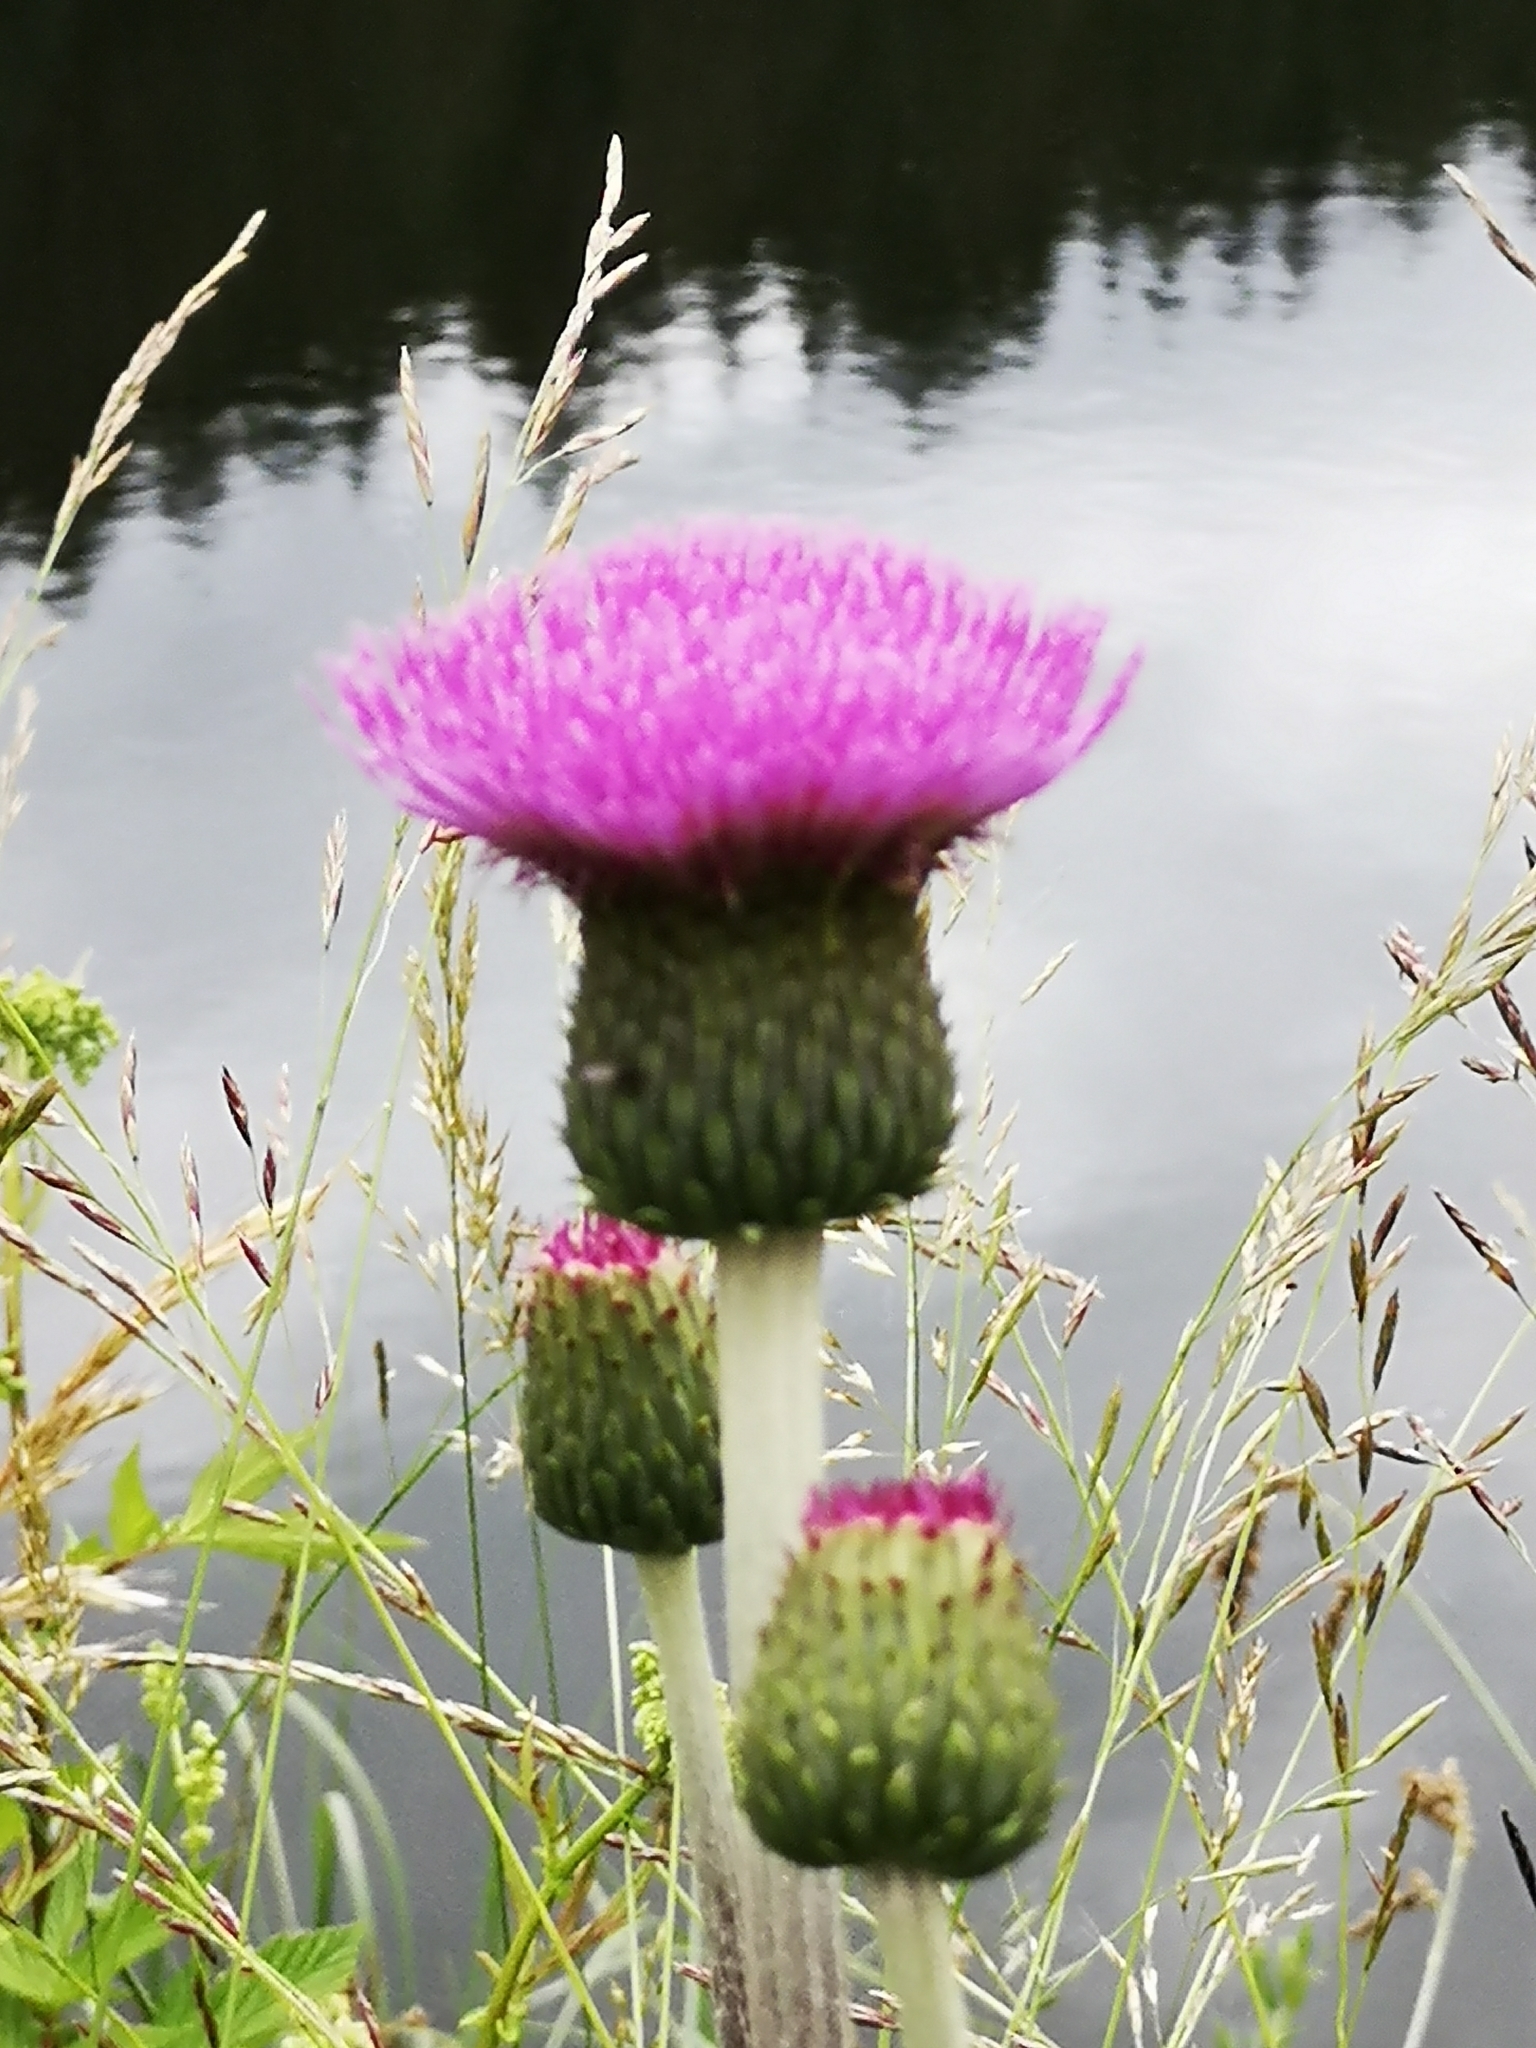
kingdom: Plantae
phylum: Tracheophyta
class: Magnoliopsida
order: Asterales
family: Asteraceae
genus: Cirsium
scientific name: Cirsium heterophyllum
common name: Melancholy thistle
